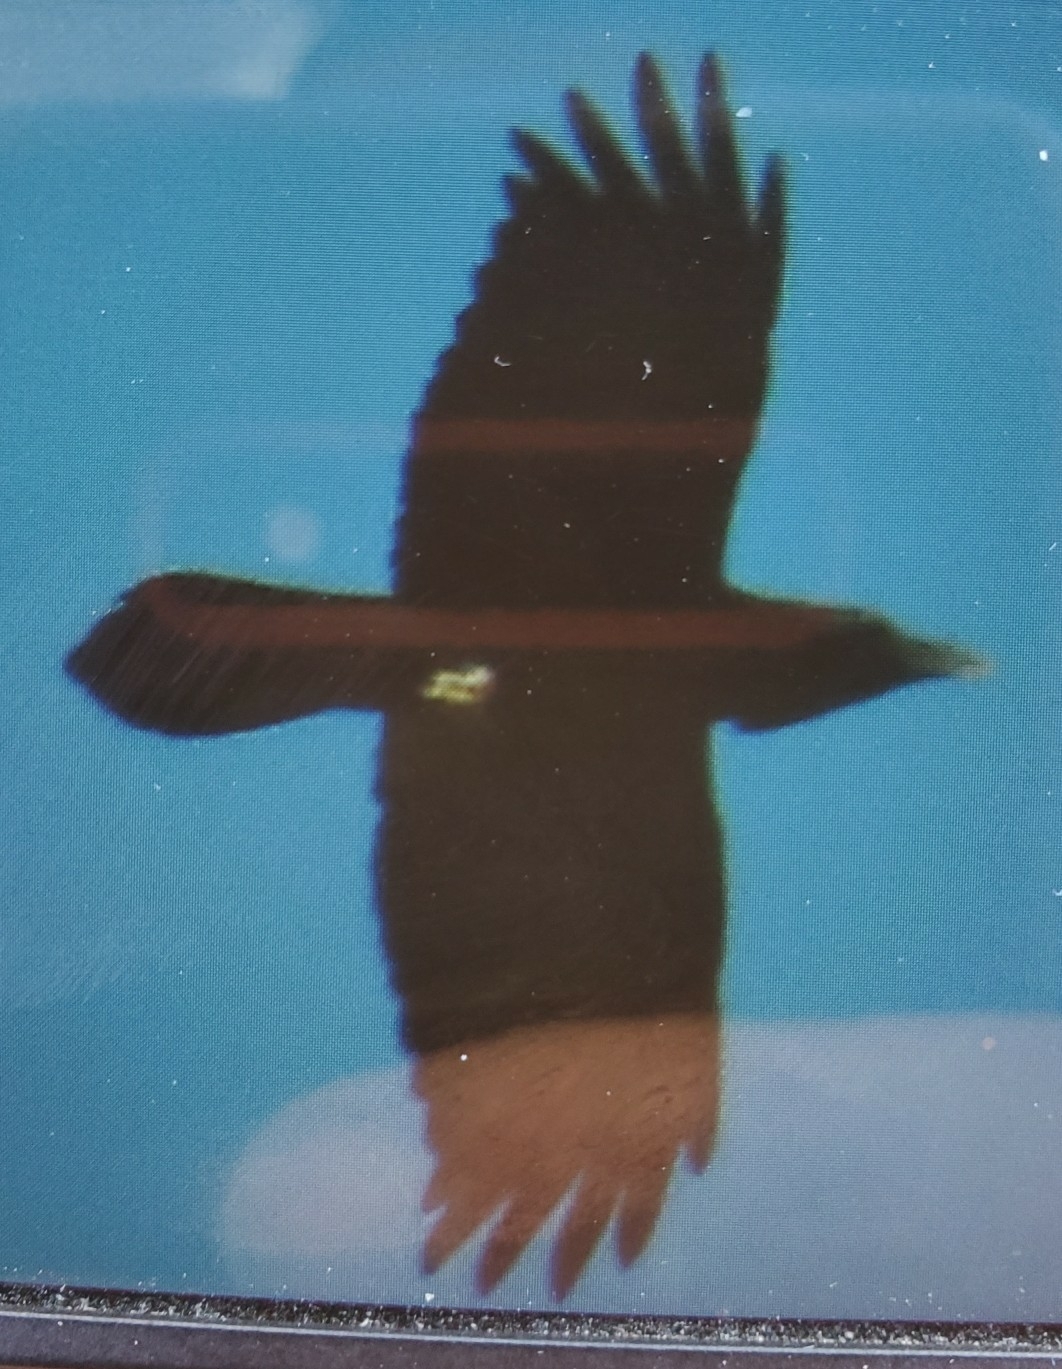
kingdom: Animalia
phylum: Chordata
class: Aves
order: Passeriformes
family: Corvidae
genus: Corvus
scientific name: Corvus corax
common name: Common raven
